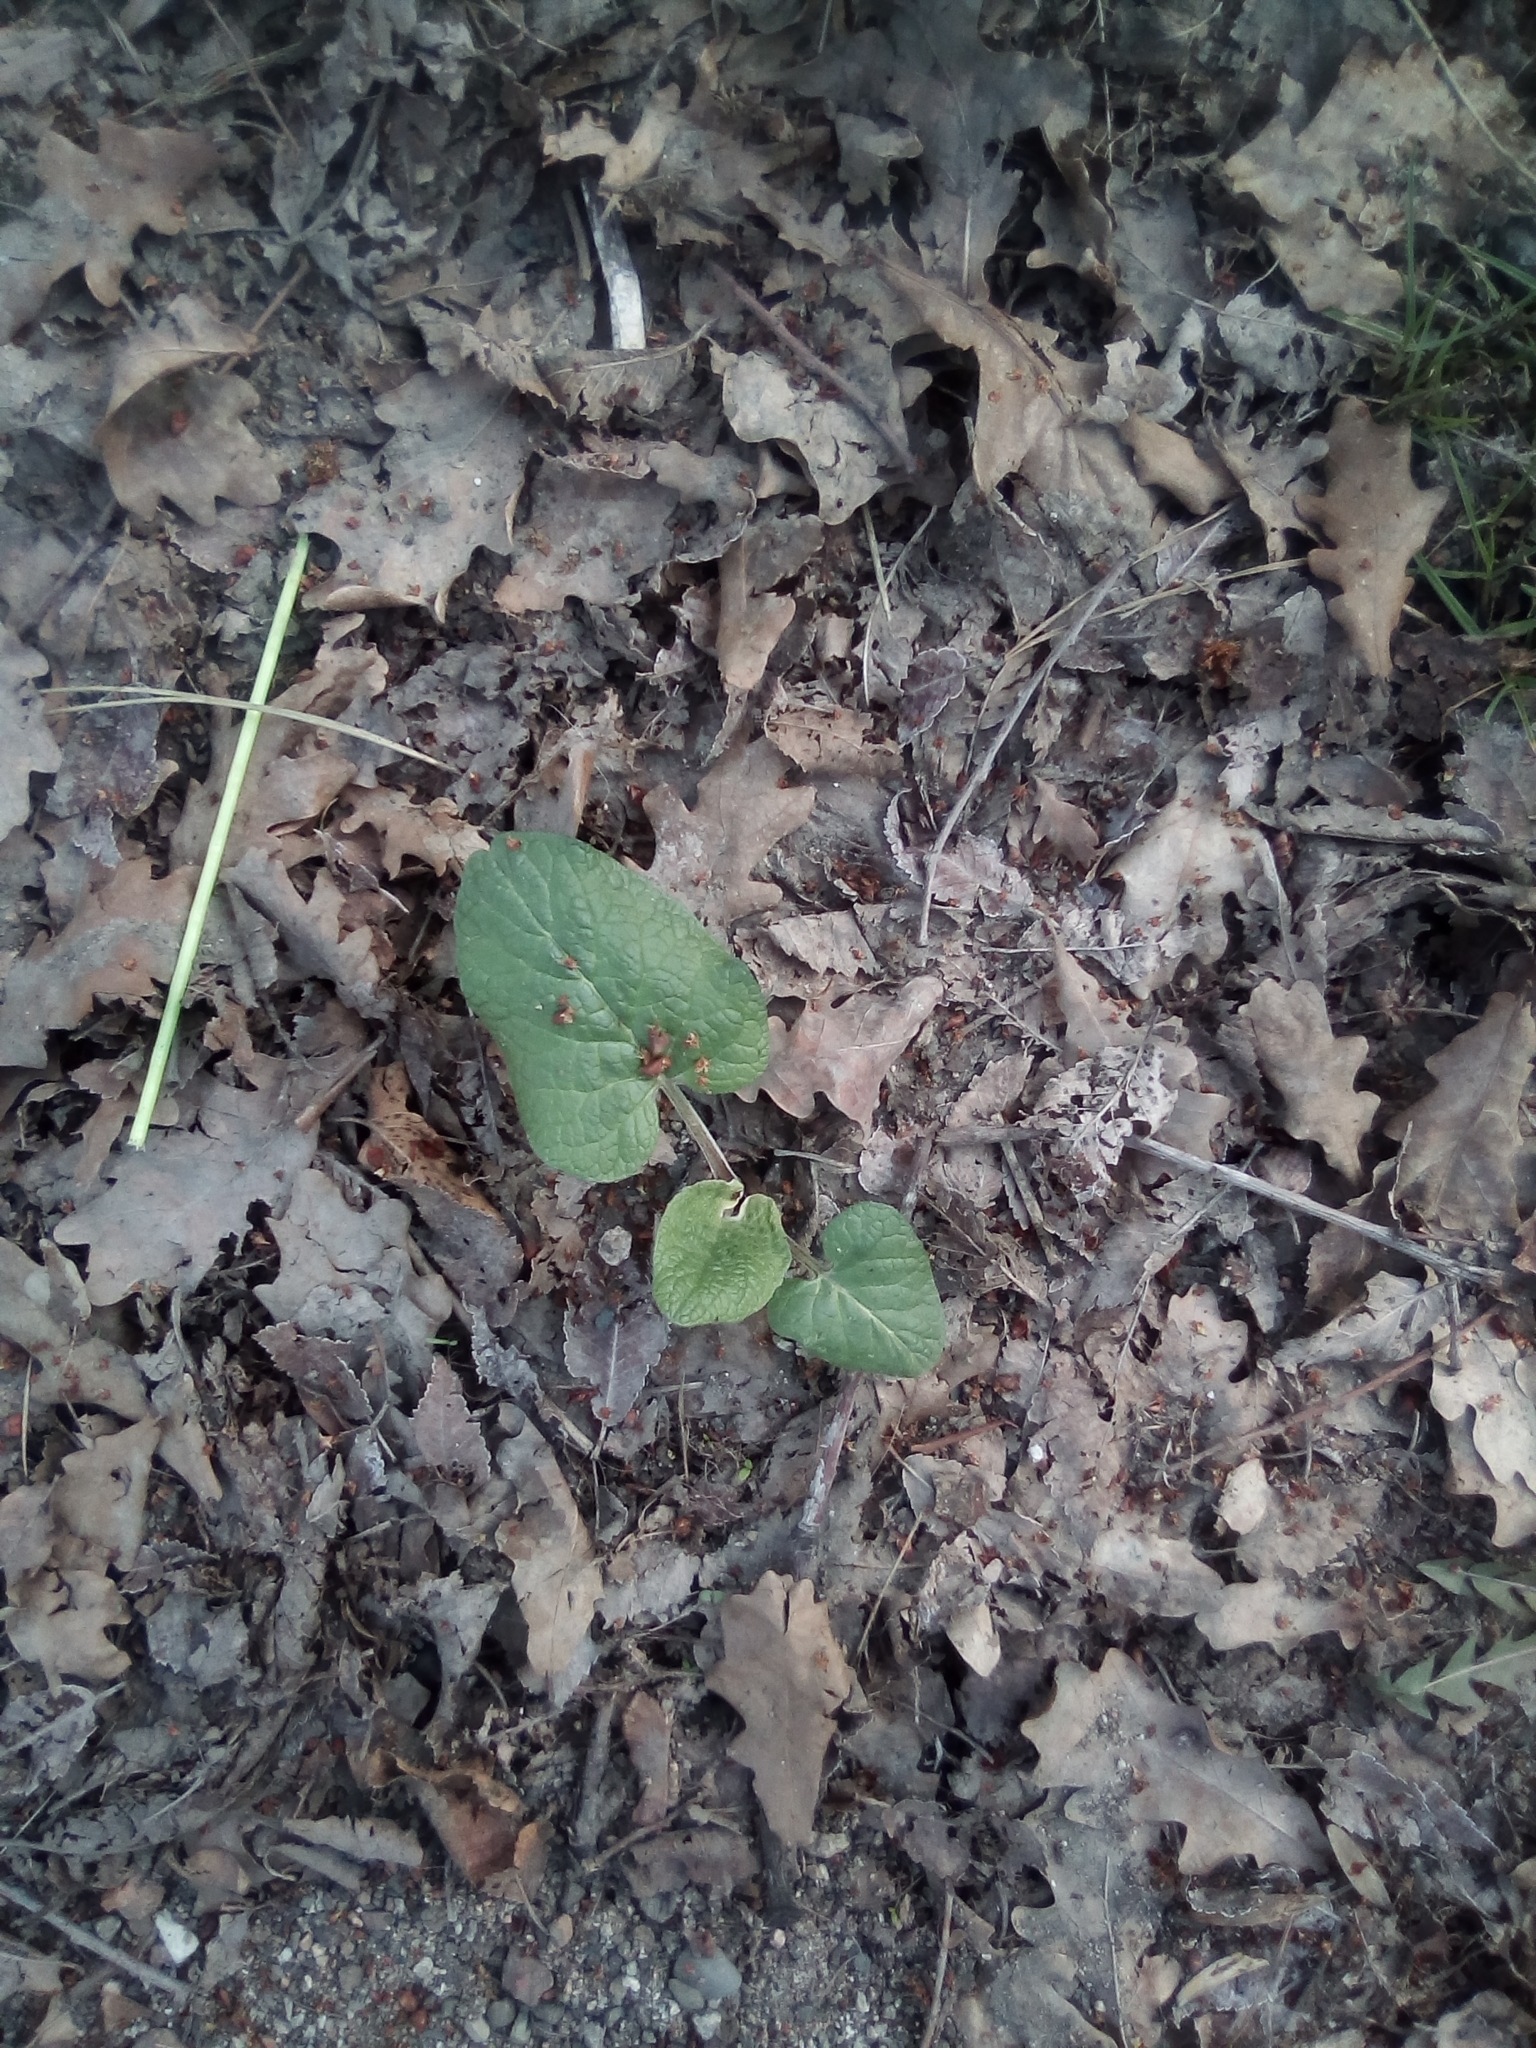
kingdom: Plantae
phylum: Tracheophyta
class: Magnoliopsida
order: Asterales
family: Asteraceae
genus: Arctium
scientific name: Arctium
